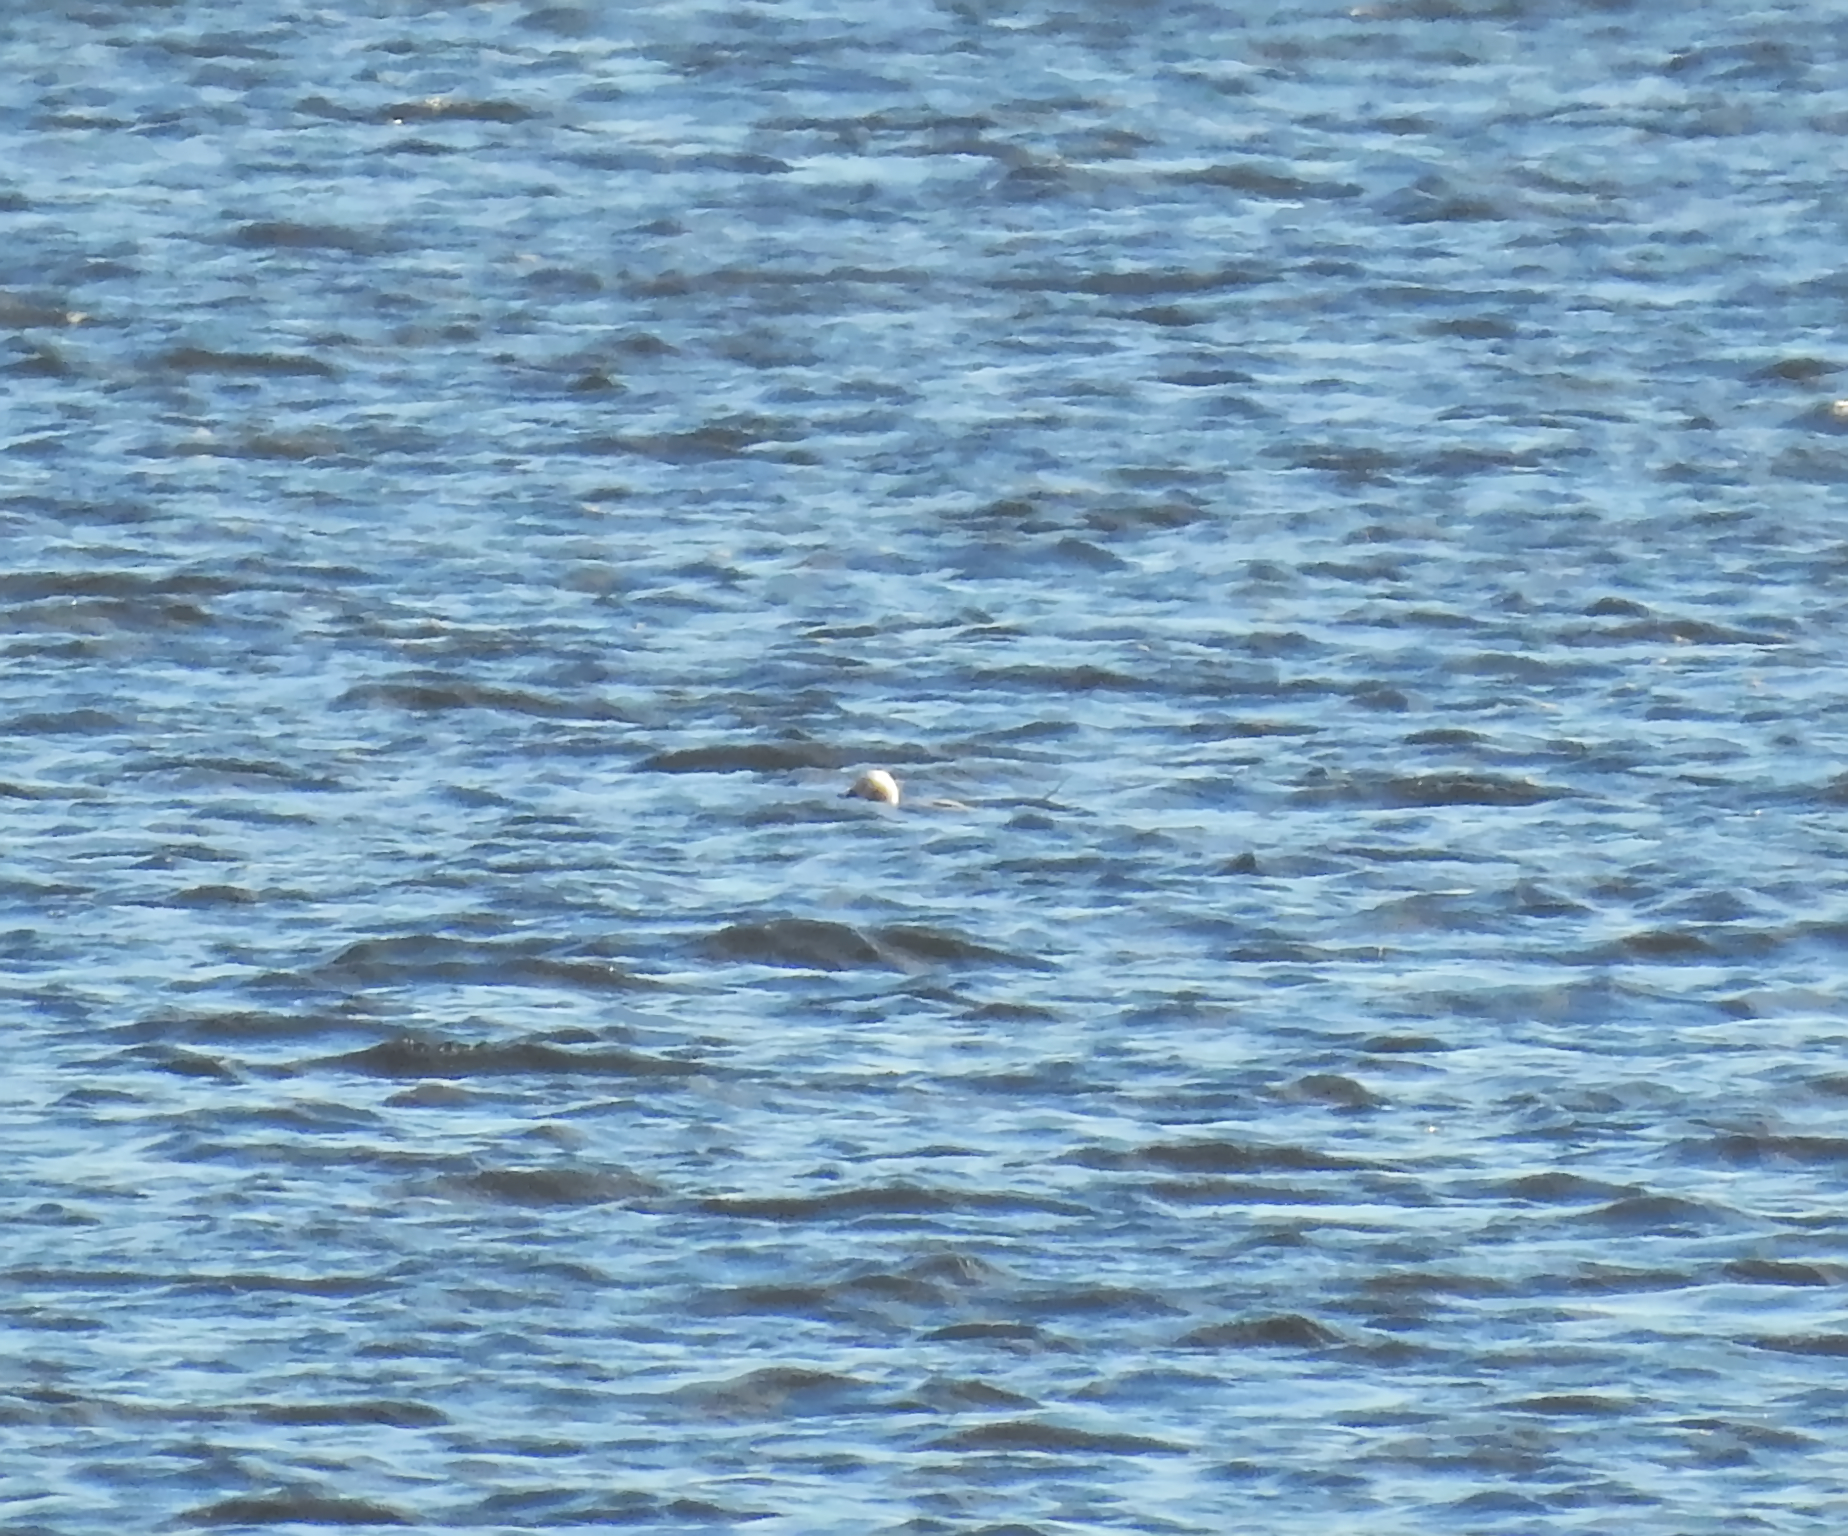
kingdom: Animalia
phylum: Chordata
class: Aves
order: Anseriformes
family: Anatidae
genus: Clangula
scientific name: Clangula hyemalis
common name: Long-tailed duck
